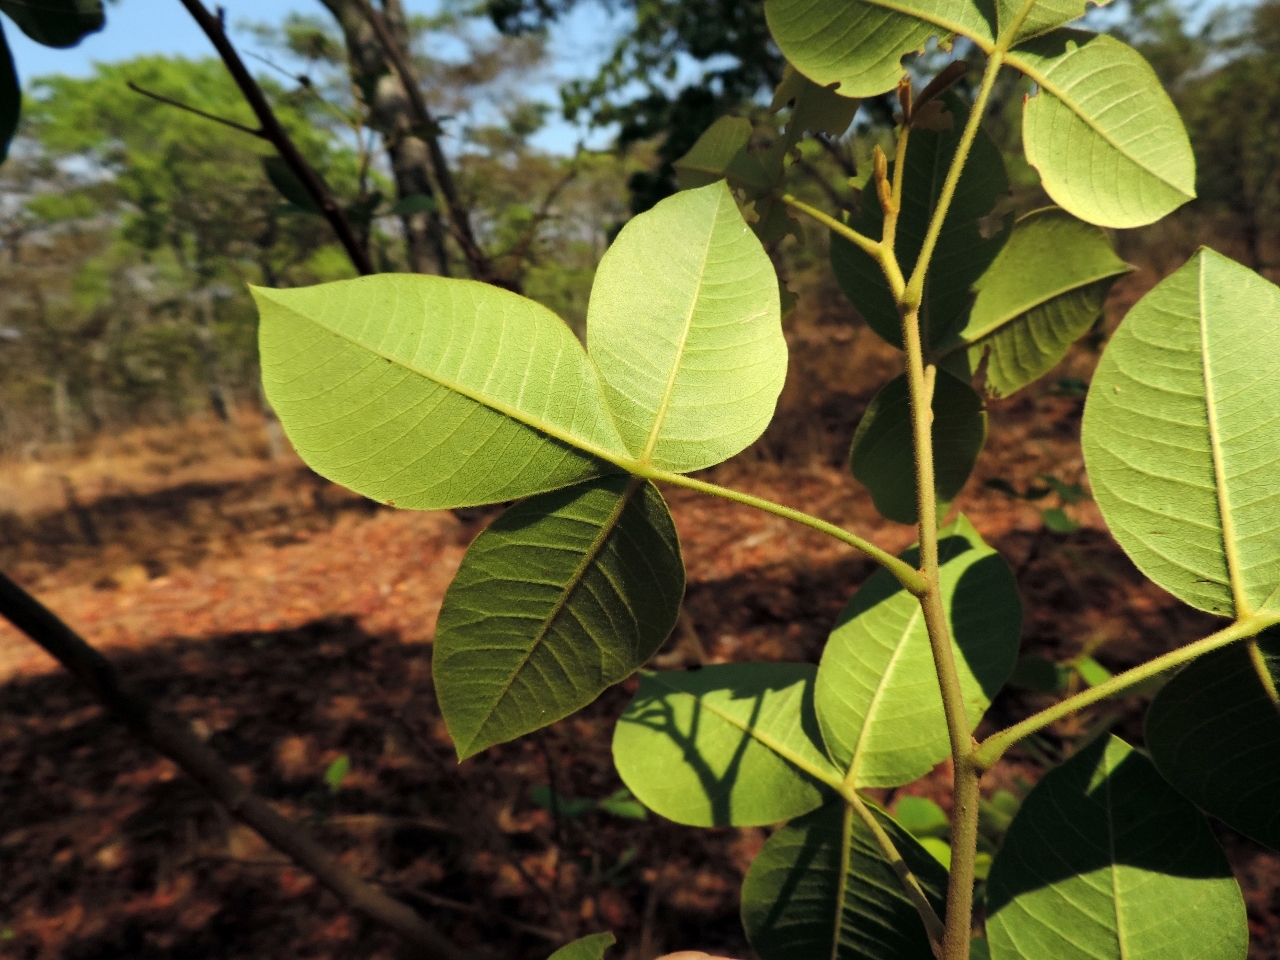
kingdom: Plantae
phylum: Tracheophyta
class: Magnoliopsida
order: Sapindales
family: Anacardiaceae
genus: Searsia
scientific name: Searsia longipes
